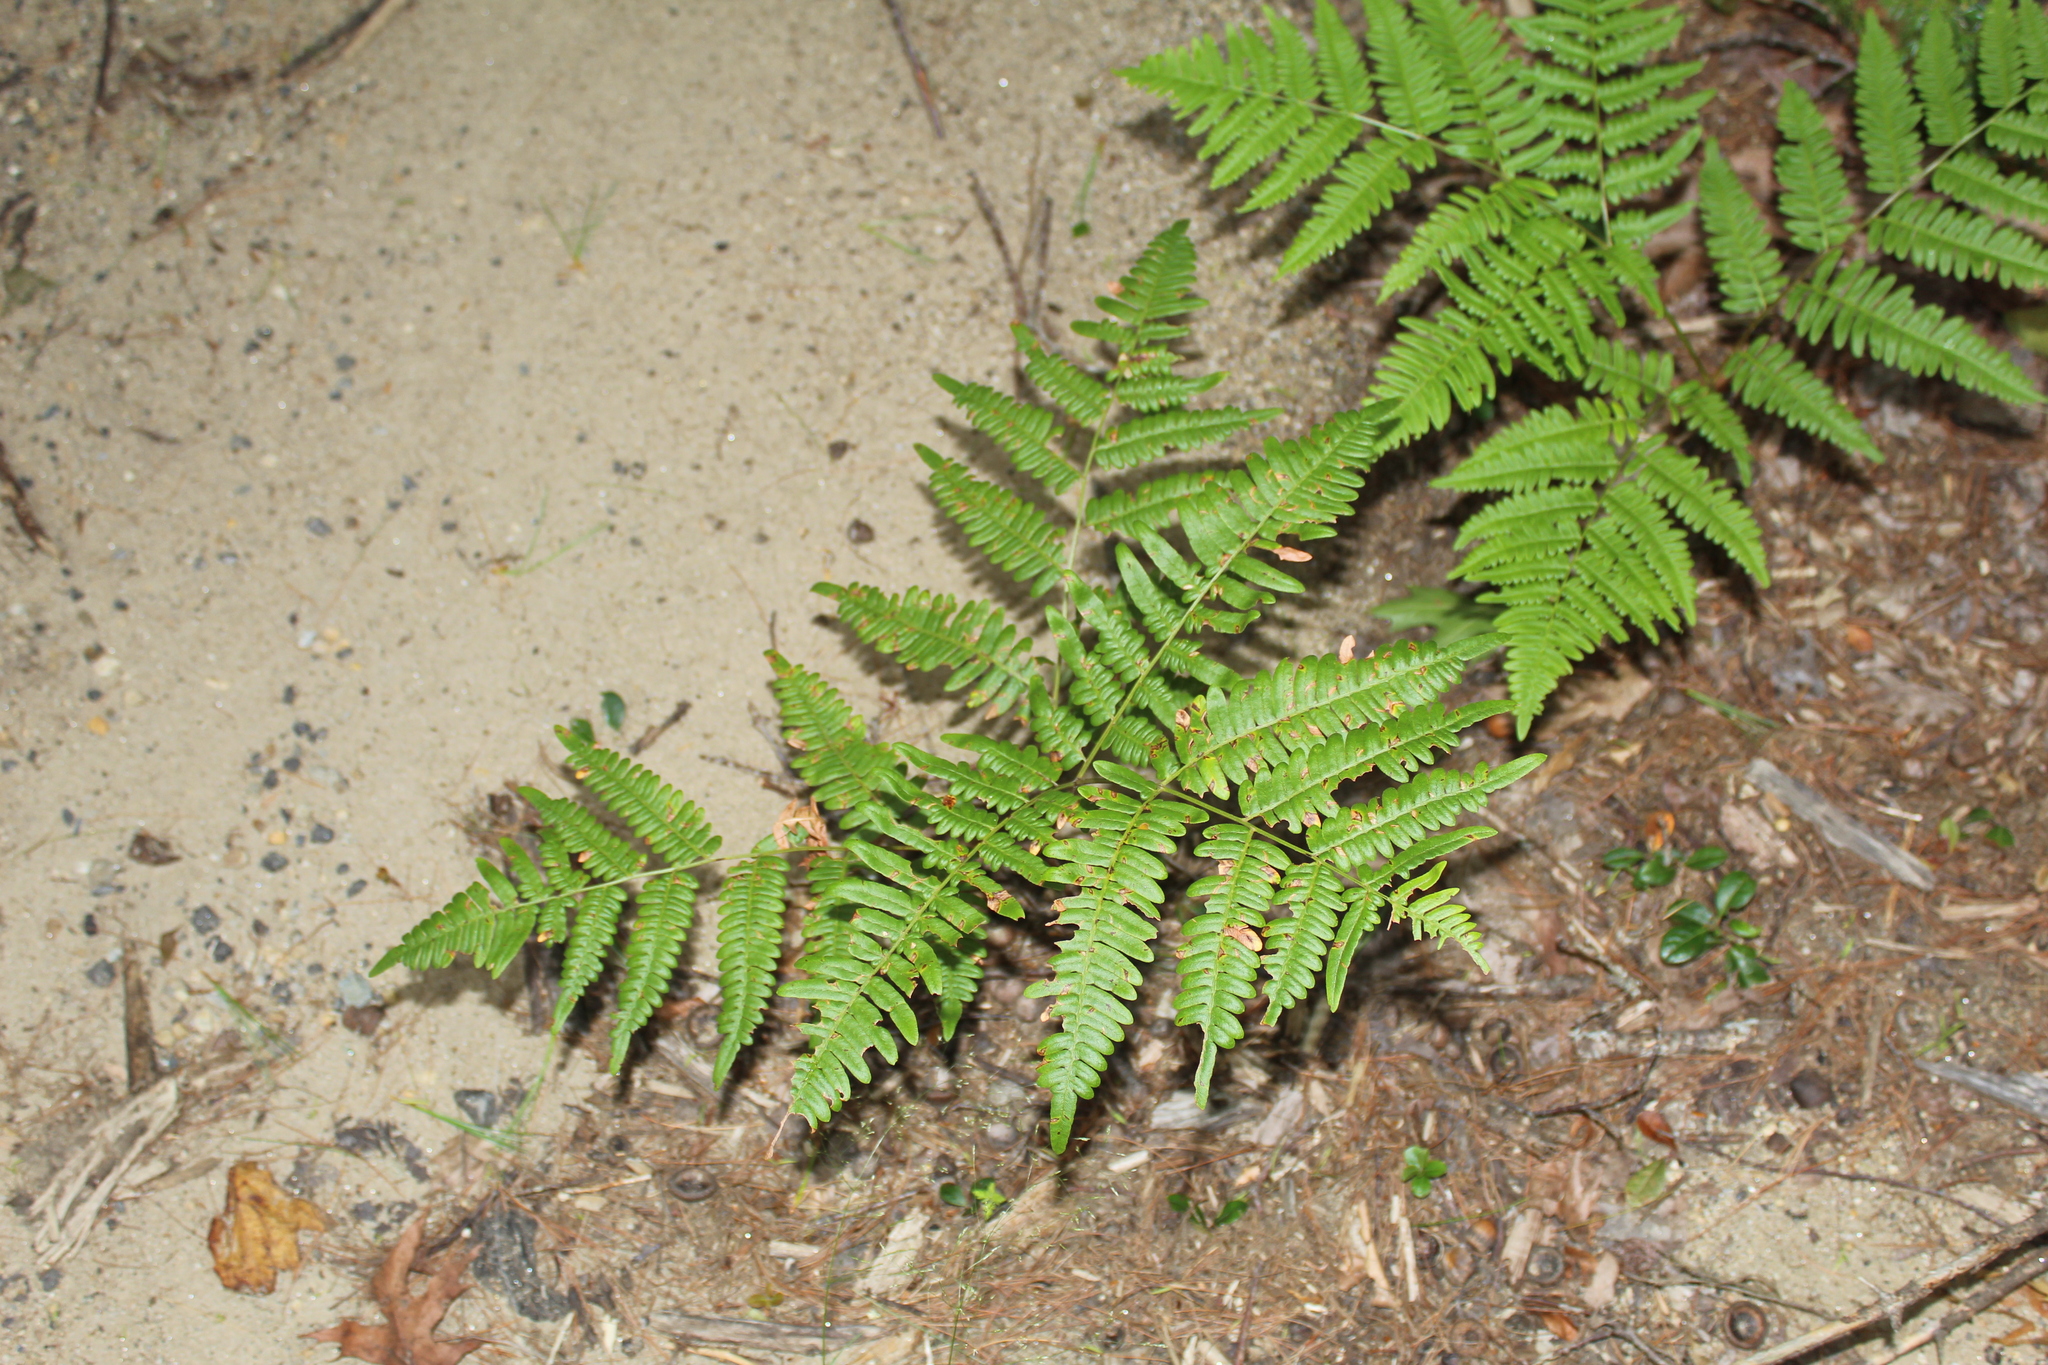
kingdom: Plantae
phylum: Tracheophyta
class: Polypodiopsida
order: Polypodiales
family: Dennstaedtiaceae
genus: Pteridium
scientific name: Pteridium aquilinum
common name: Bracken
